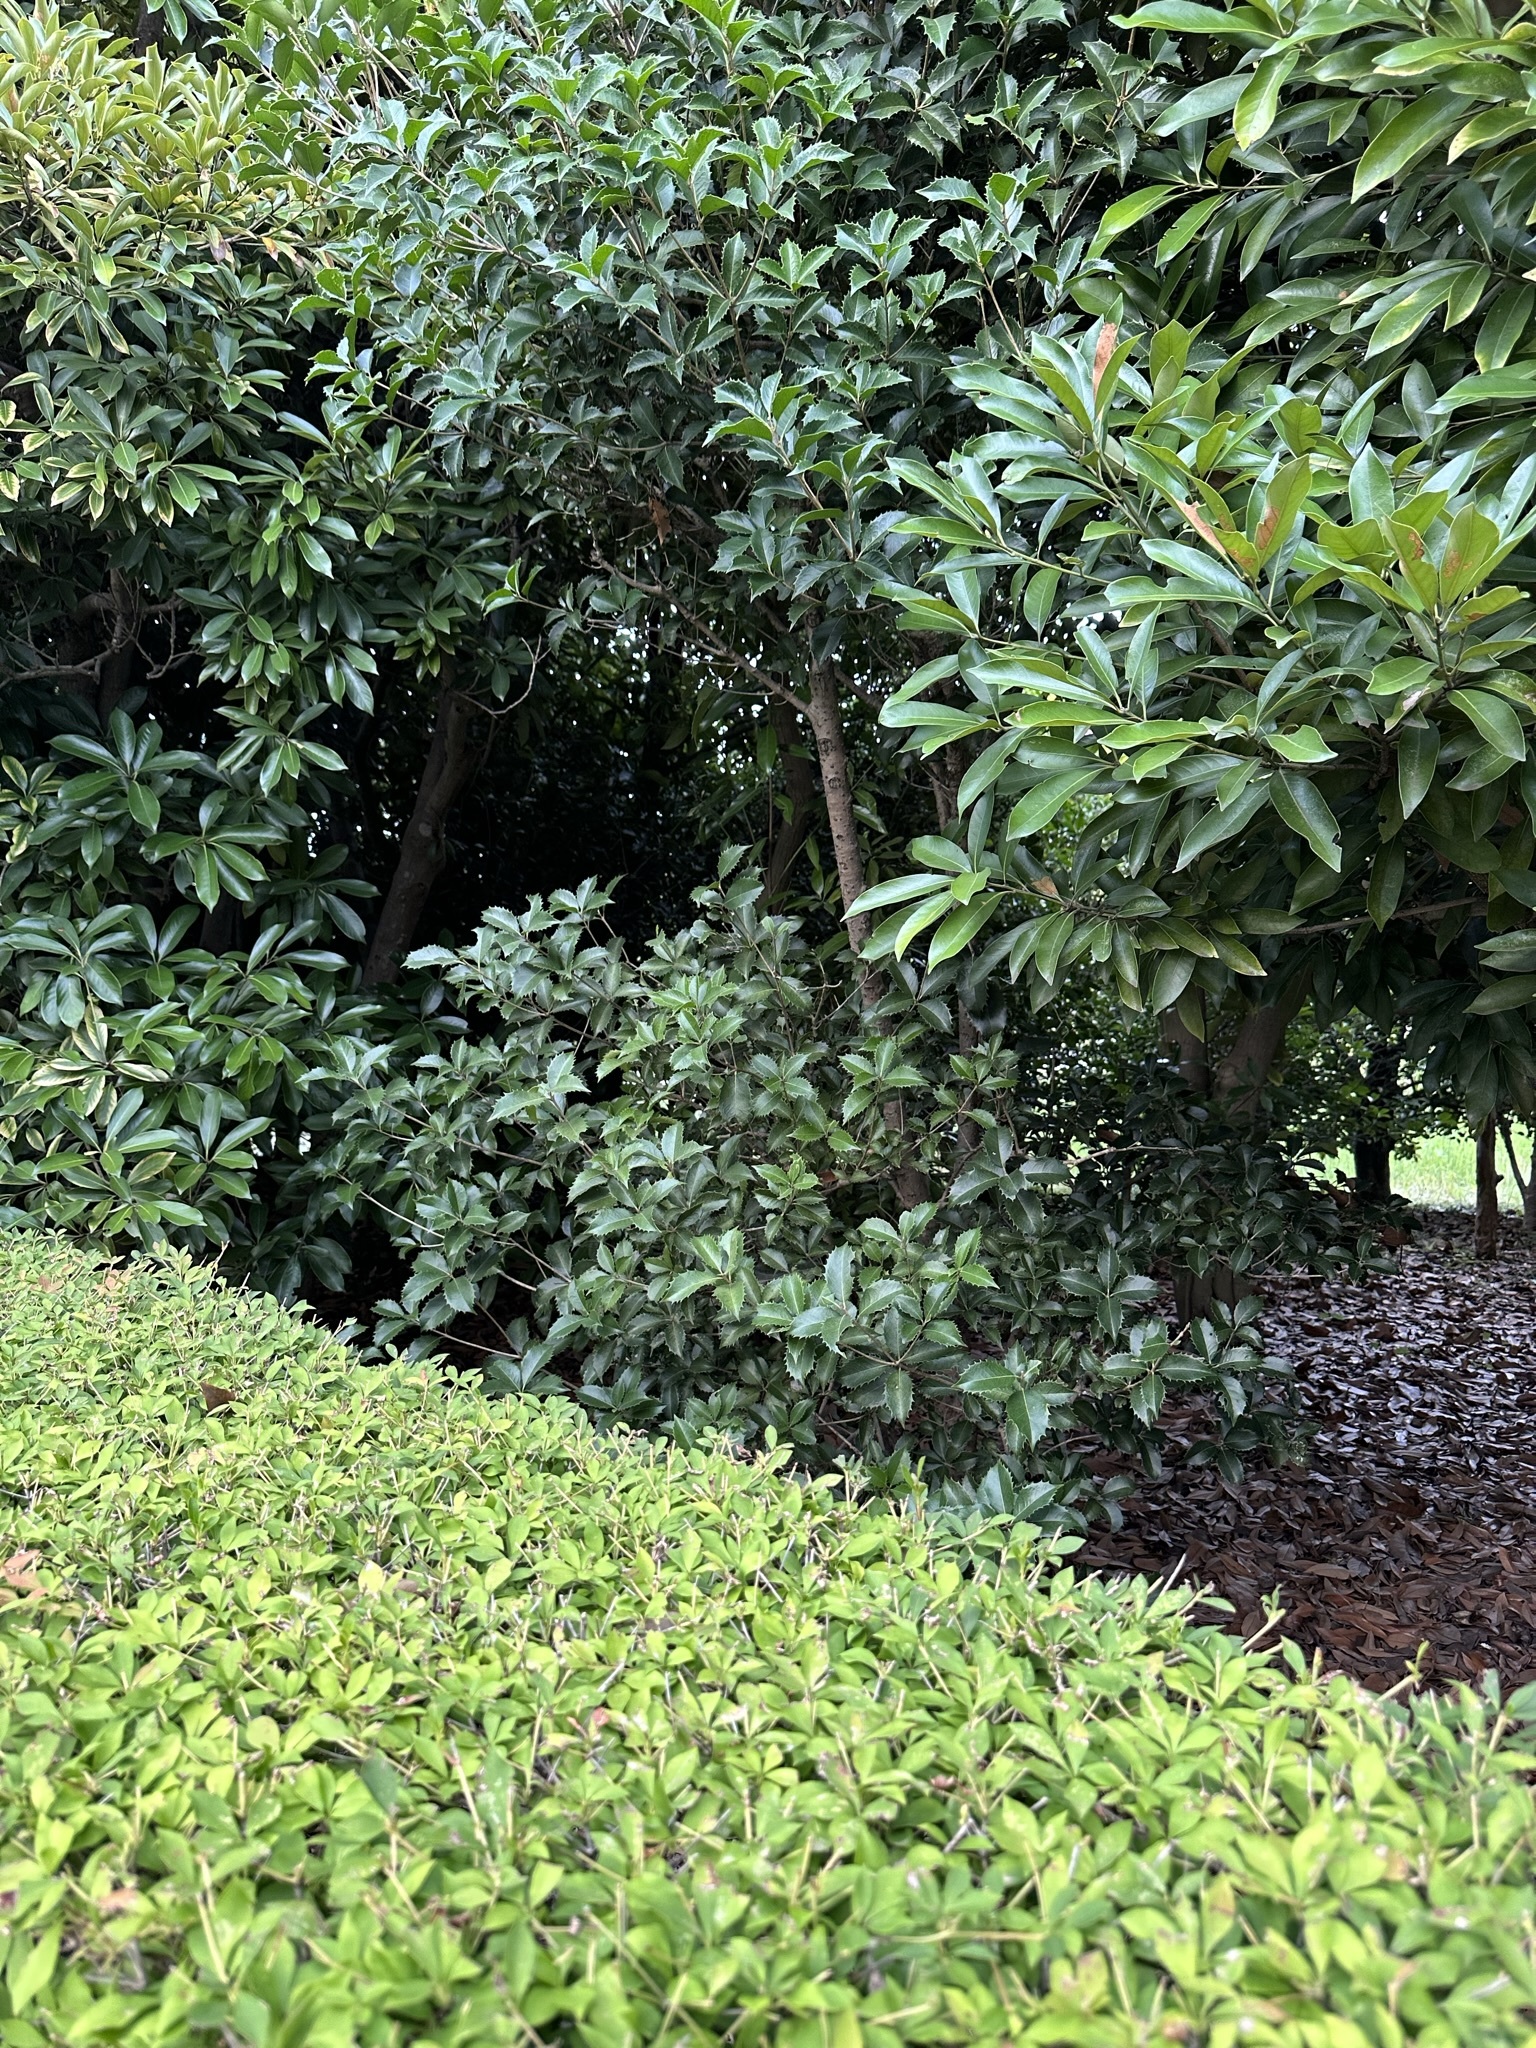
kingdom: Animalia
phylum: Arthropoda
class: Insecta
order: Orthoptera
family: Mogoplistidae
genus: Ornebius
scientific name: Ornebius kanetataki
